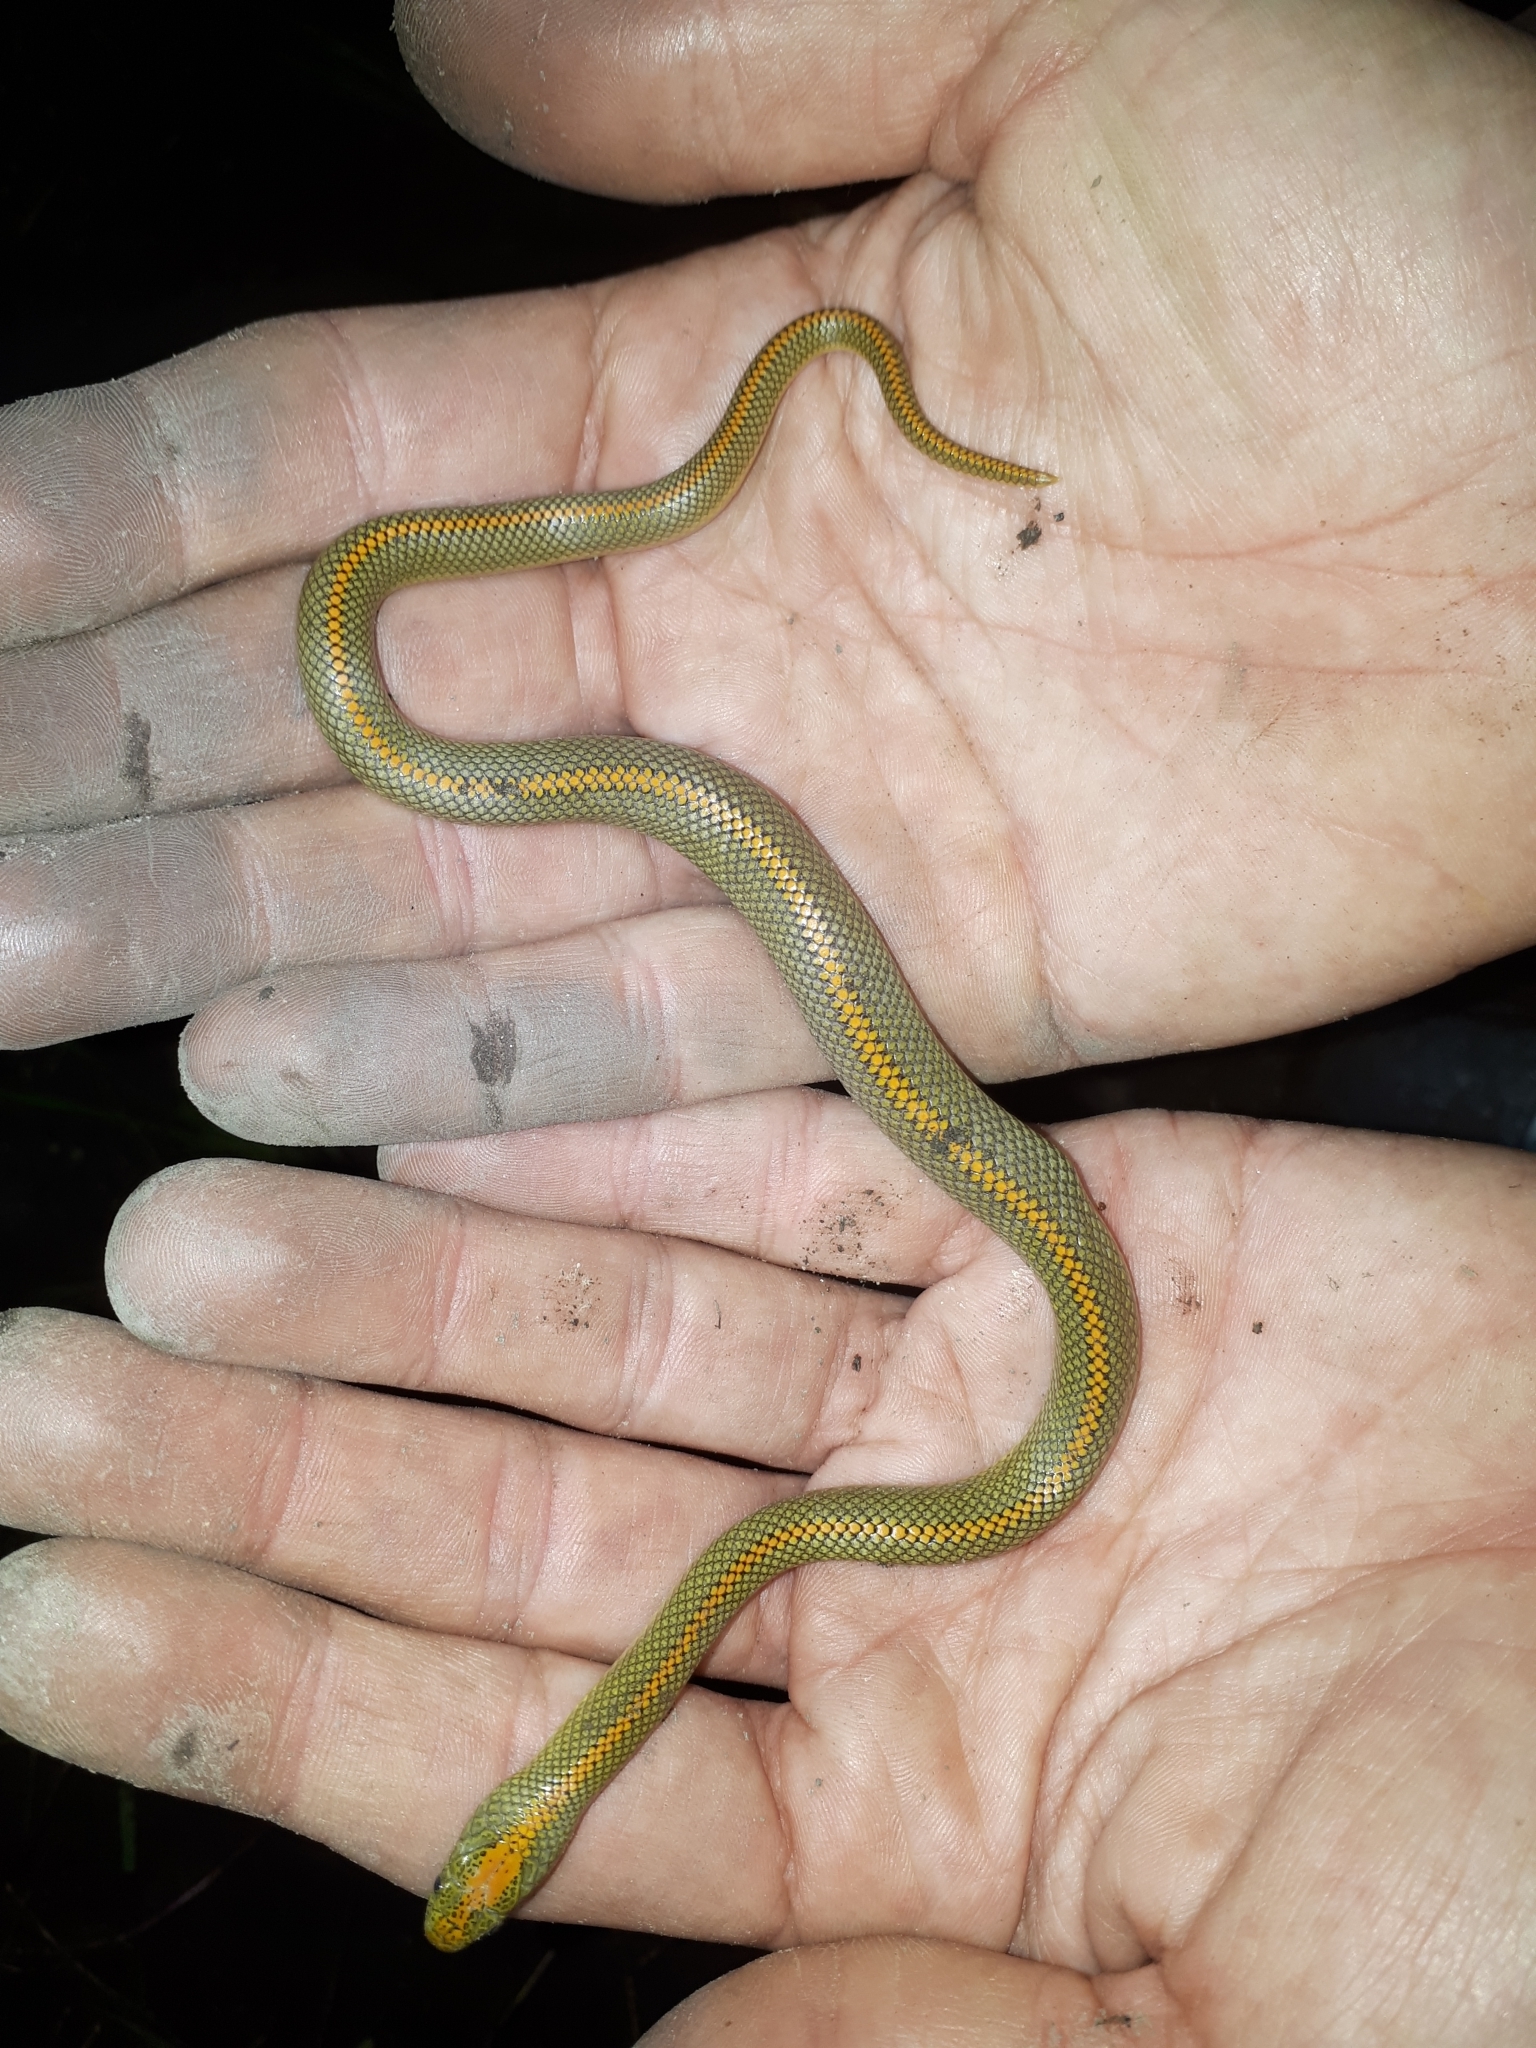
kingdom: Animalia
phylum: Chordata
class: Squamata
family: Lamprophiidae
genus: Lamprophis
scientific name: Lamprophis aurora
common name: Aurora house snake
